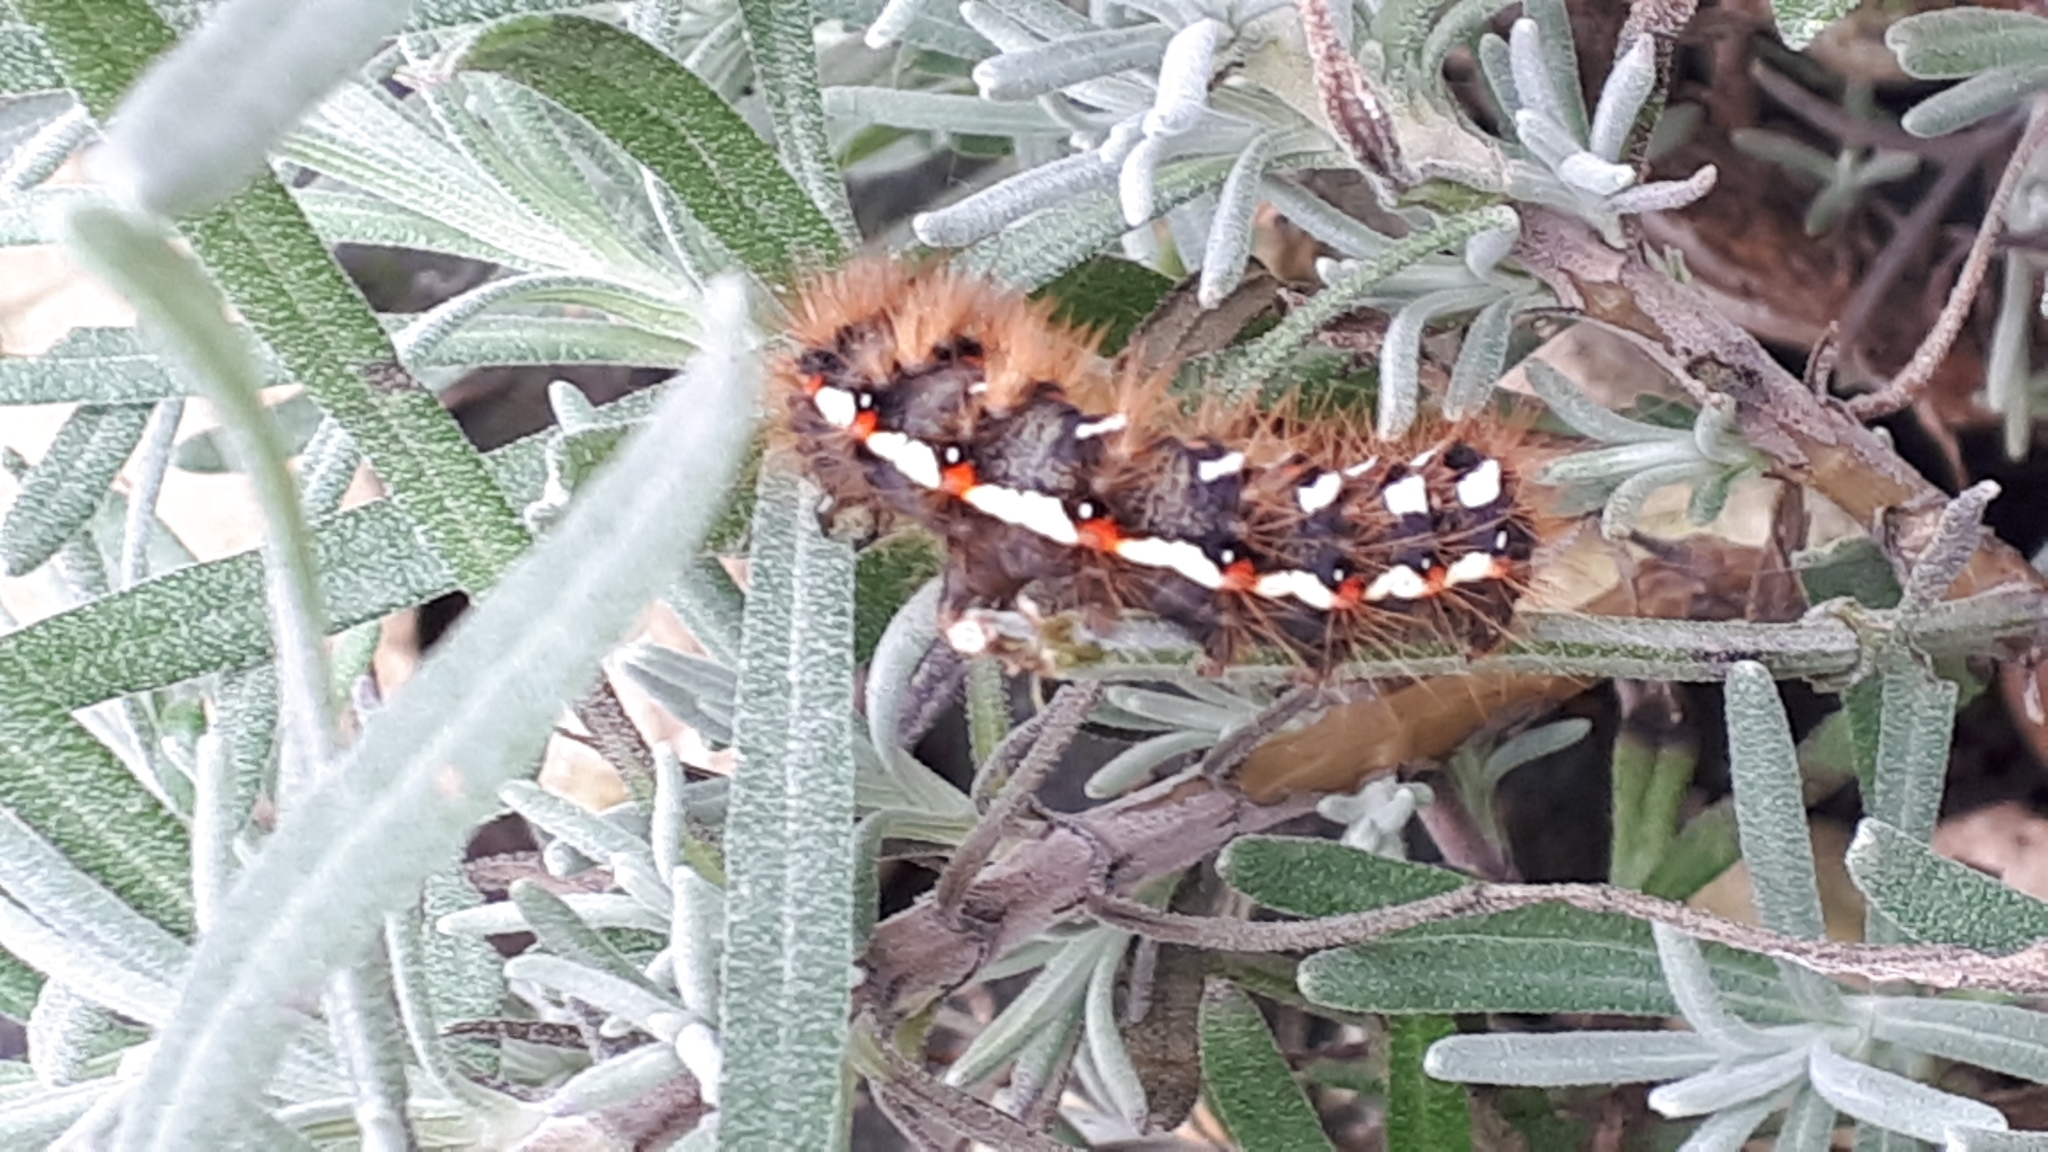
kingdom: Animalia
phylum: Arthropoda
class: Insecta
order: Lepidoptera
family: Noctuidae
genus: Acronicta
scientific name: Acronicta rumicis
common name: Knot grass
